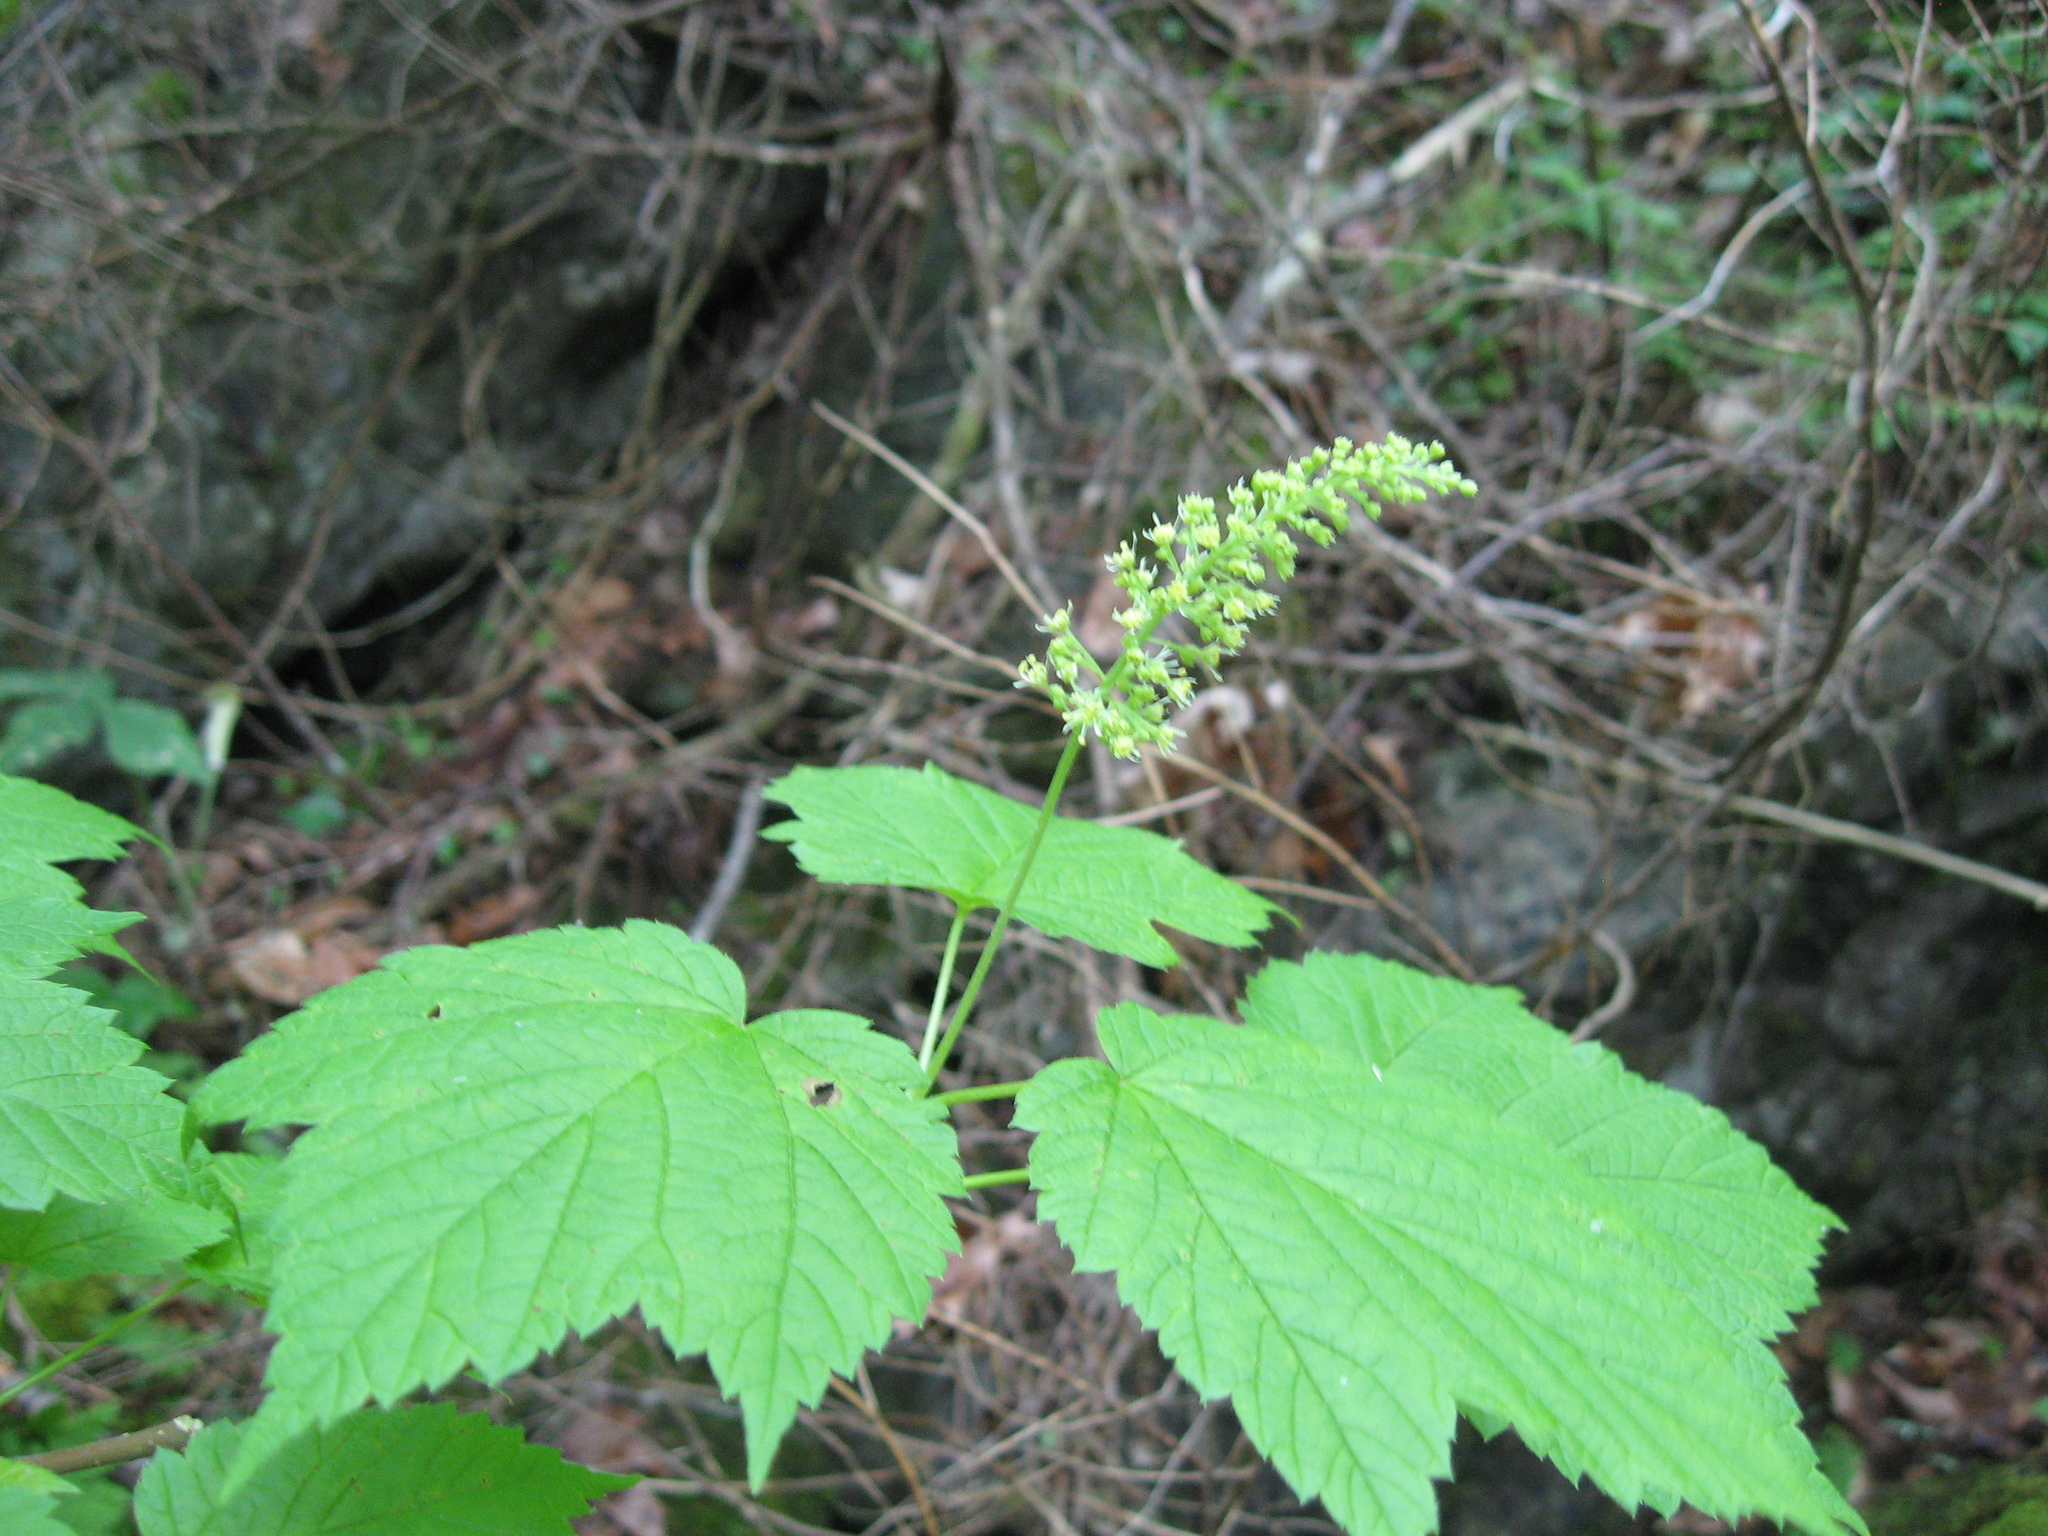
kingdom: Plantae
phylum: Tracheophyta
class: Magnoliopsida
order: Sapindales
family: Sapindaceae
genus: Acer
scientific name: Acer spicatum
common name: Mountain maple
